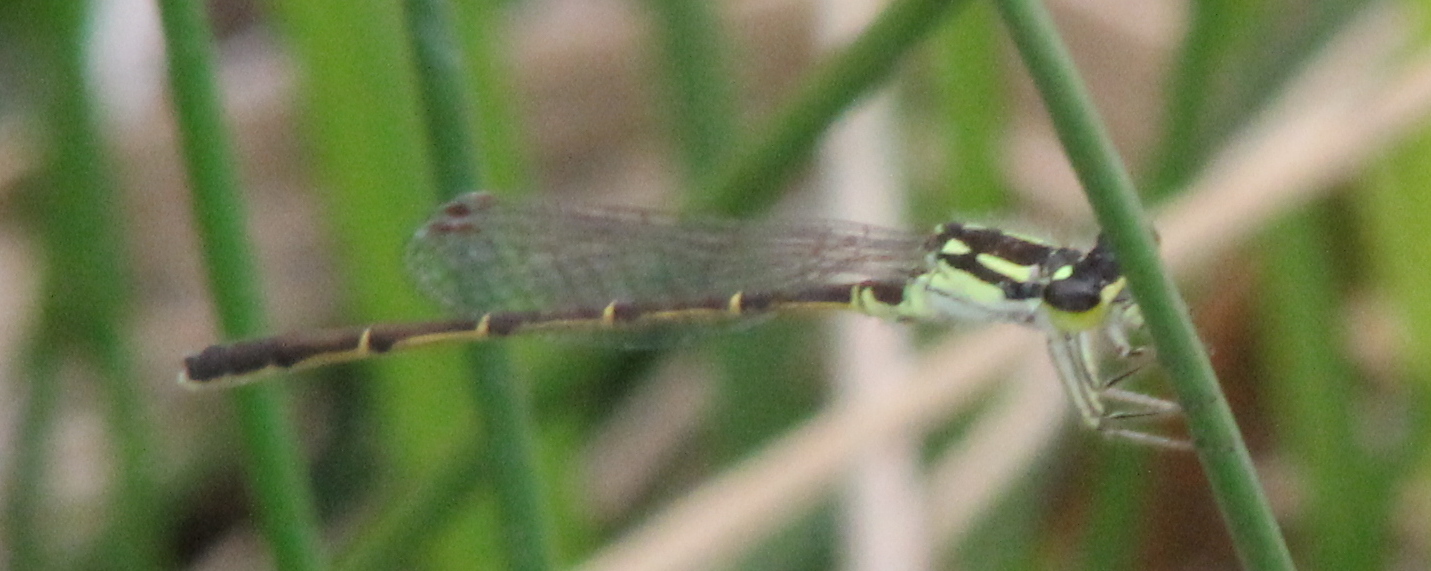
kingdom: Animalia
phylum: Arthropoda
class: Insecta
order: Odonata
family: Coenagrionidae
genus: Ischnura
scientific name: Ischnura posita
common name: Fragile forktail
